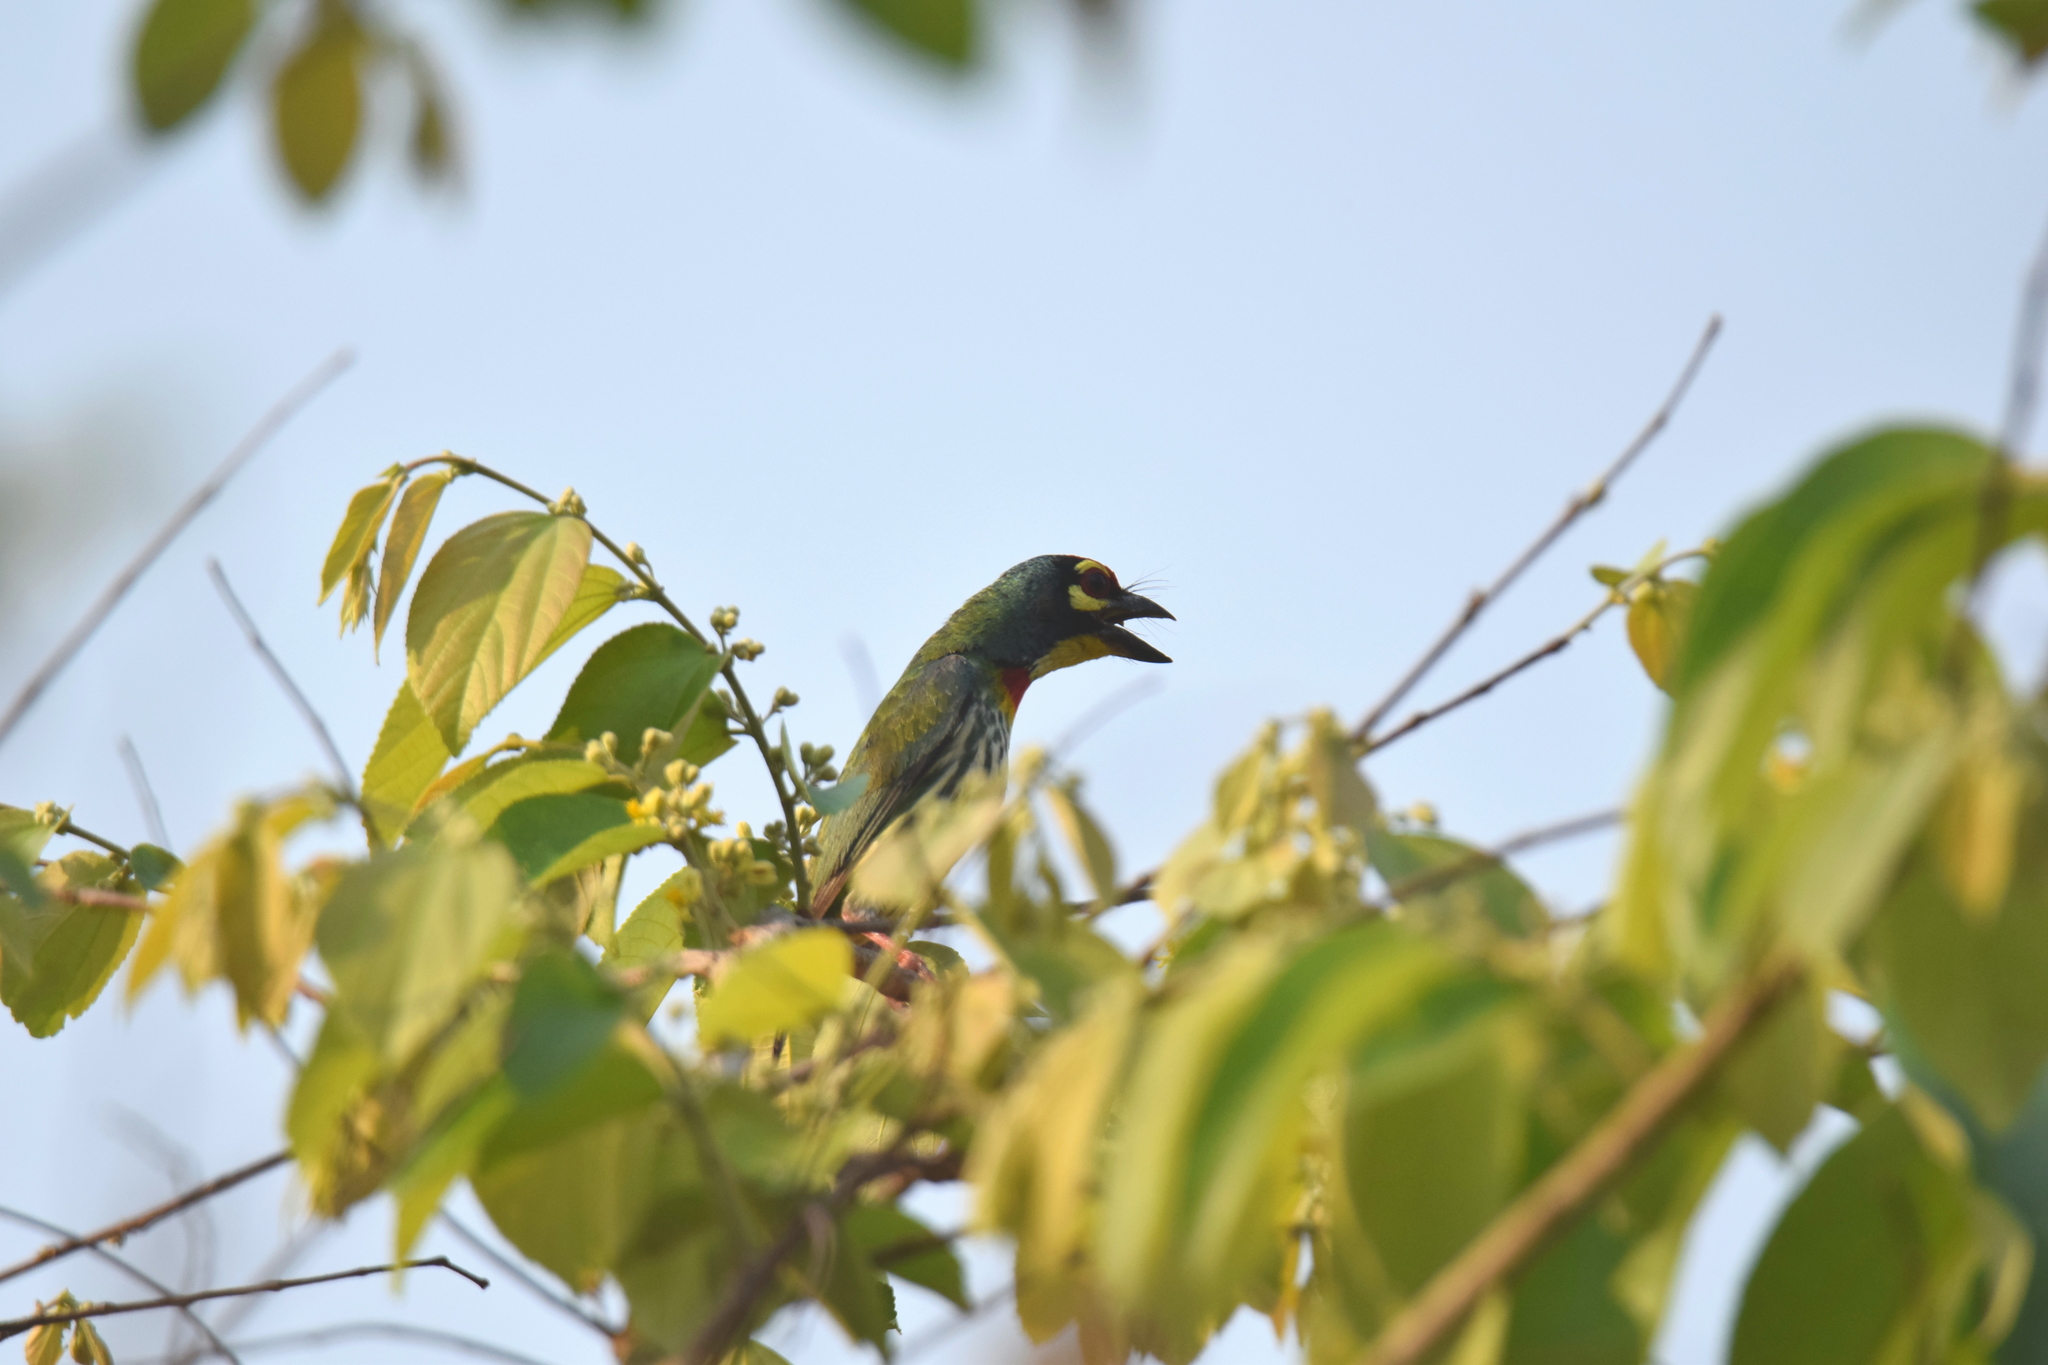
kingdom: Animalia
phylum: Chordata
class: Aves
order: Piciformes
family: Megalaimidae
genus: Psilopogon
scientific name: Psilopogon haemacephalus
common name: Coppersmith barbet
